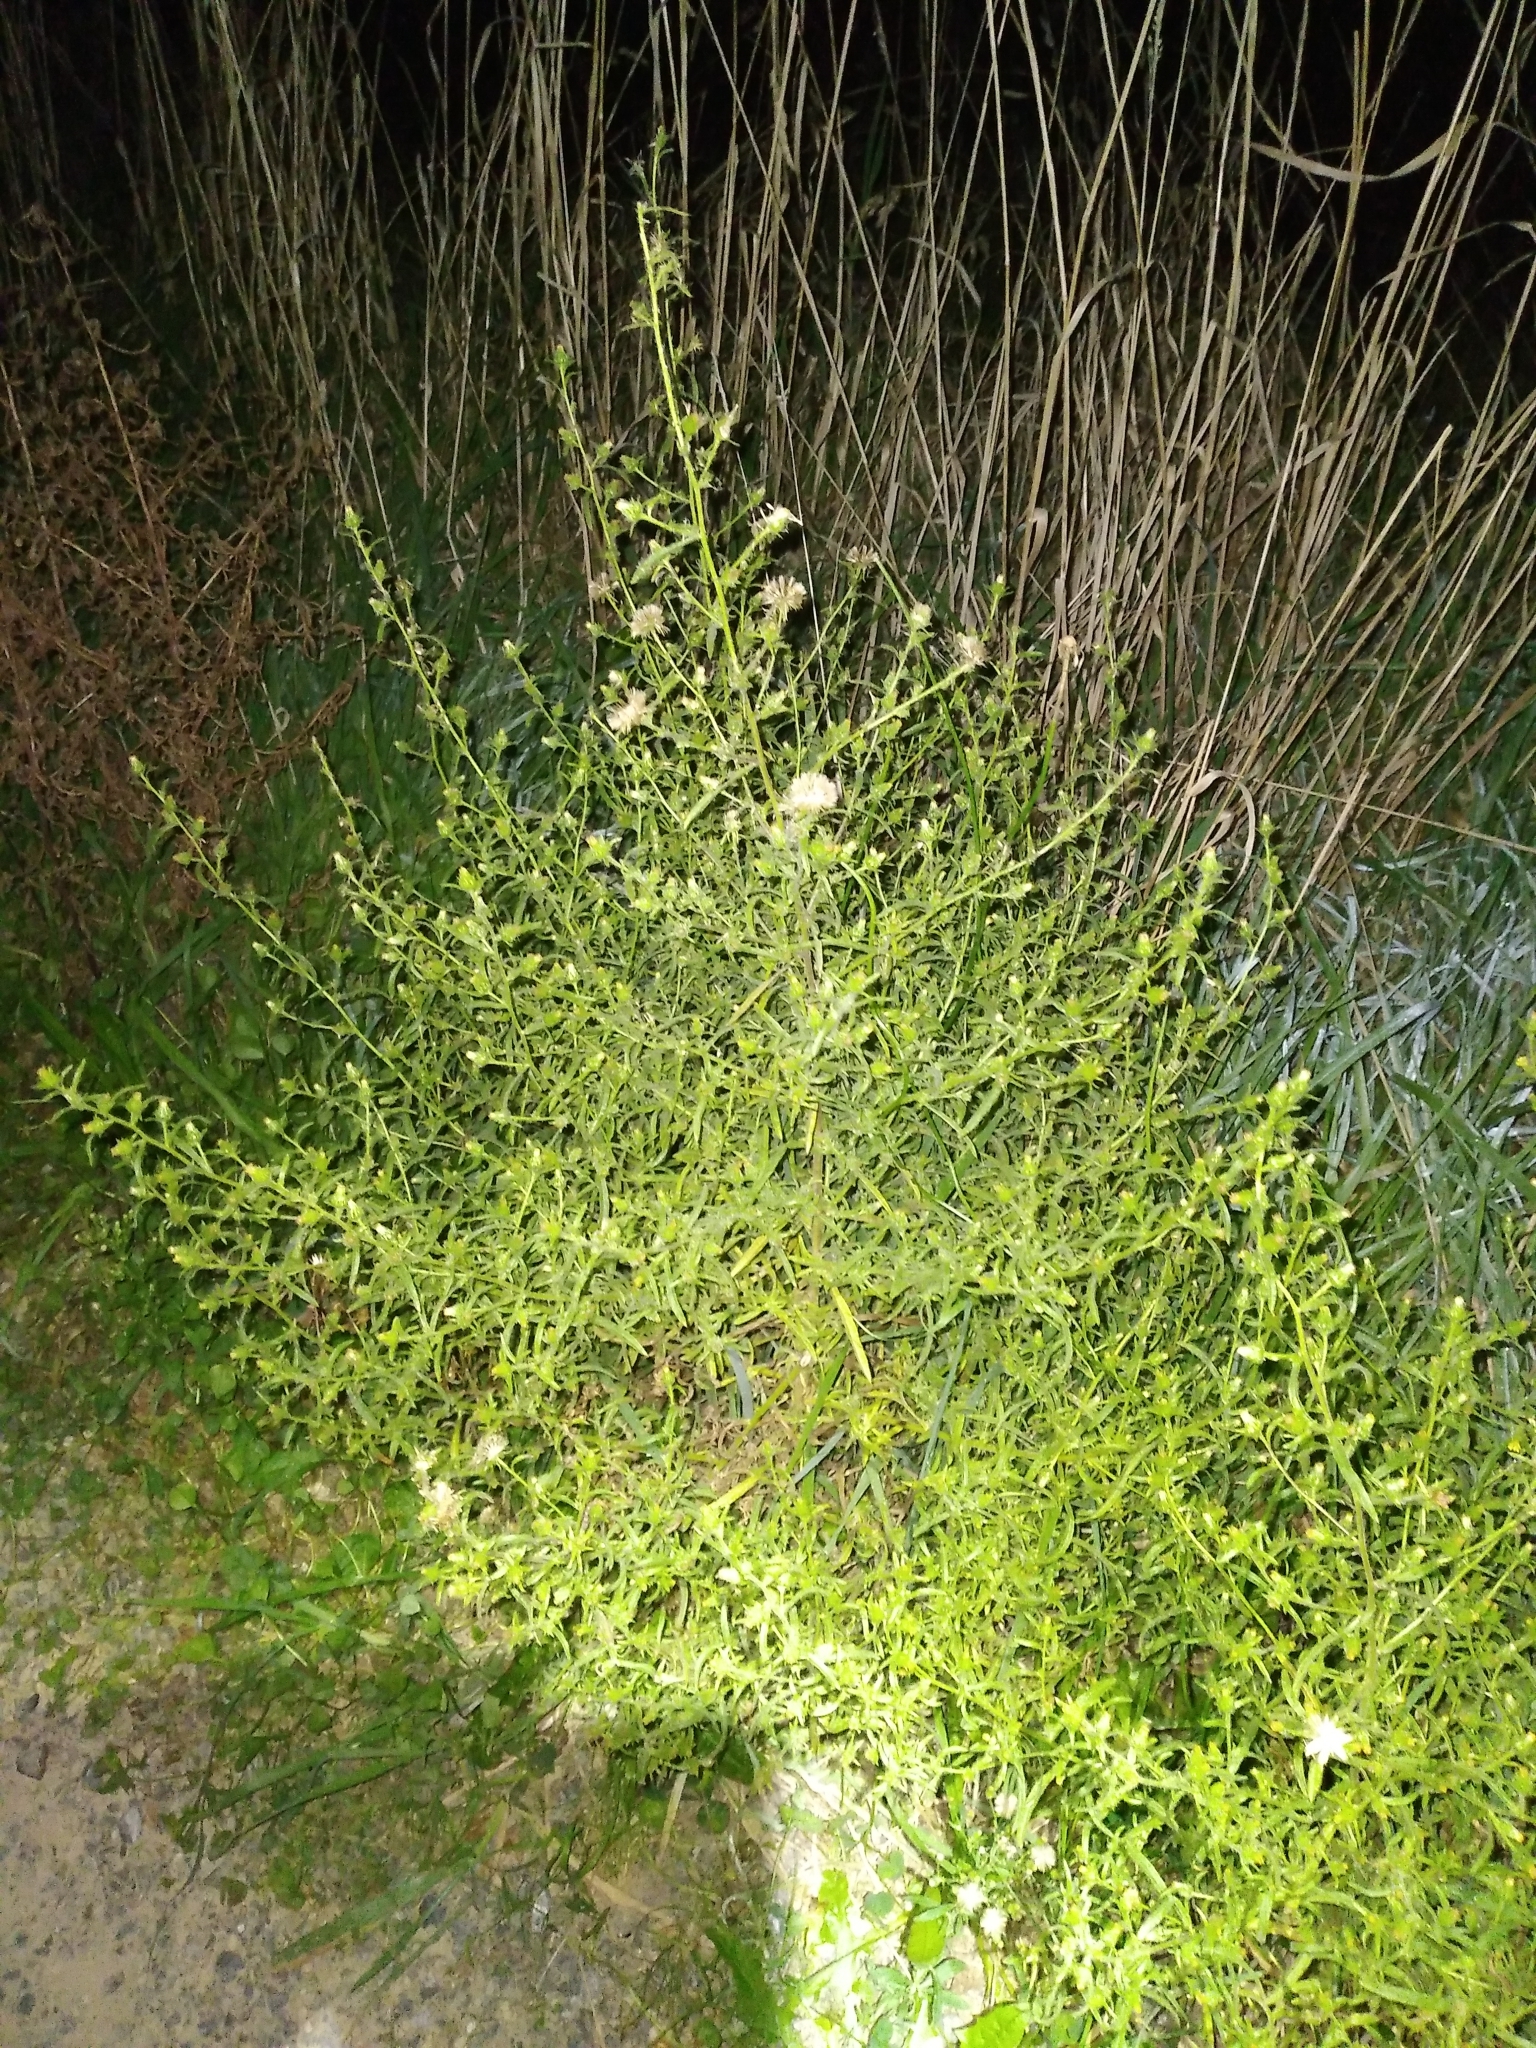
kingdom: Plantae
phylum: Tracheophyta
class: Magnoliopsida
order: Asterales
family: Asteraceae
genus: Dittrichia
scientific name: Dittrichia graveolens
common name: Stinking fleabane
